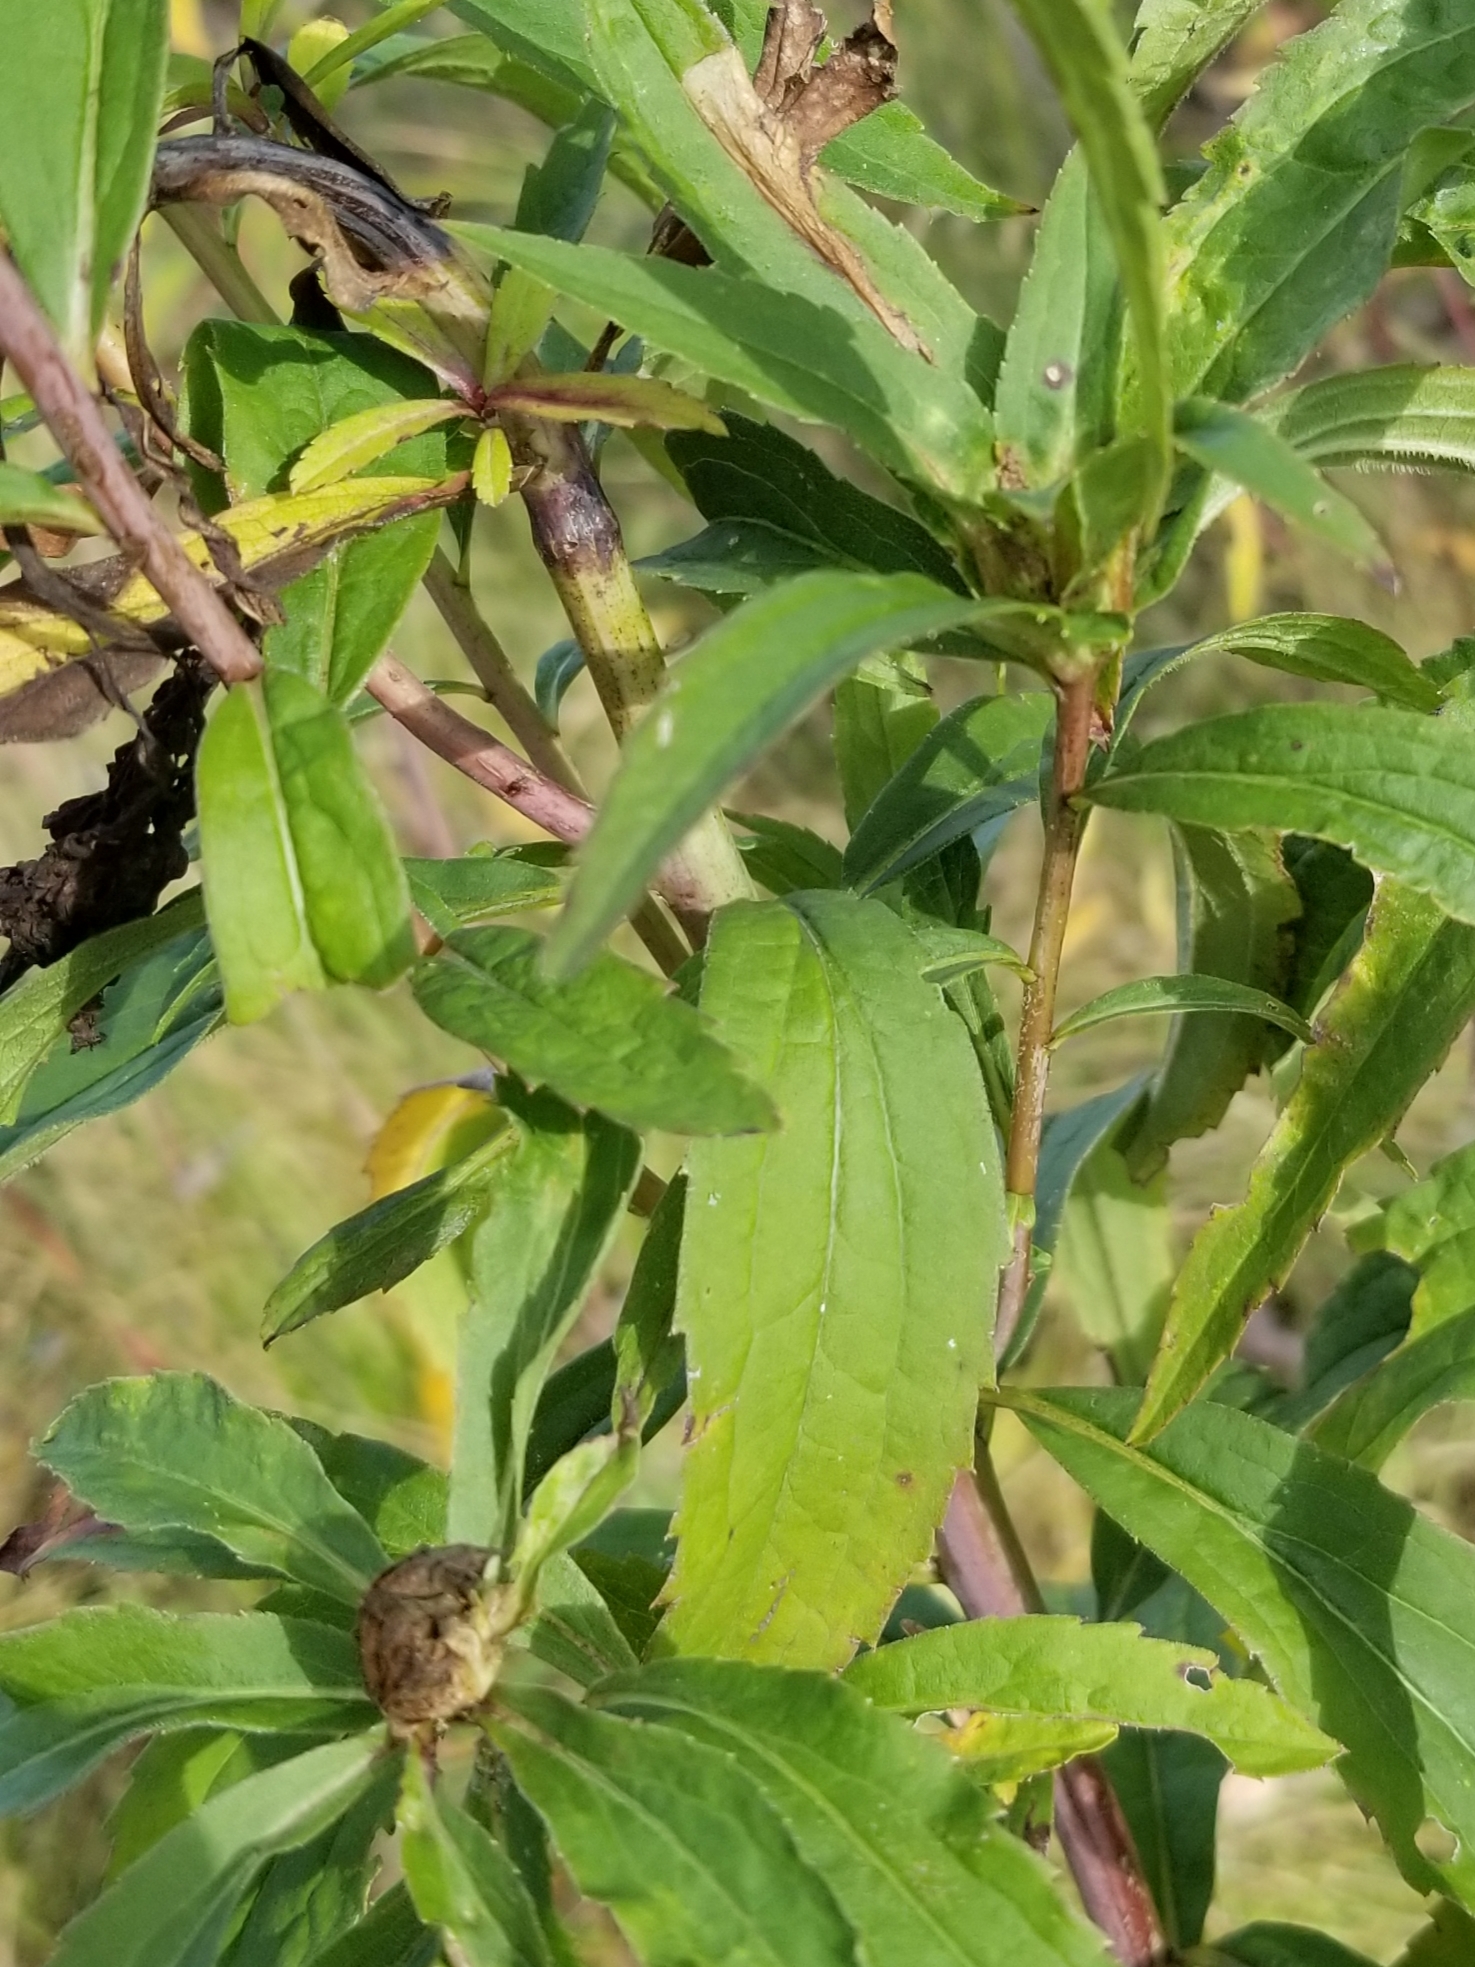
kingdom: Animalia
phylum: Arthropoda
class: Insecta
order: Diptera
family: Cecidomyiidae
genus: Dasineura
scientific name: Dasineura folliculi
